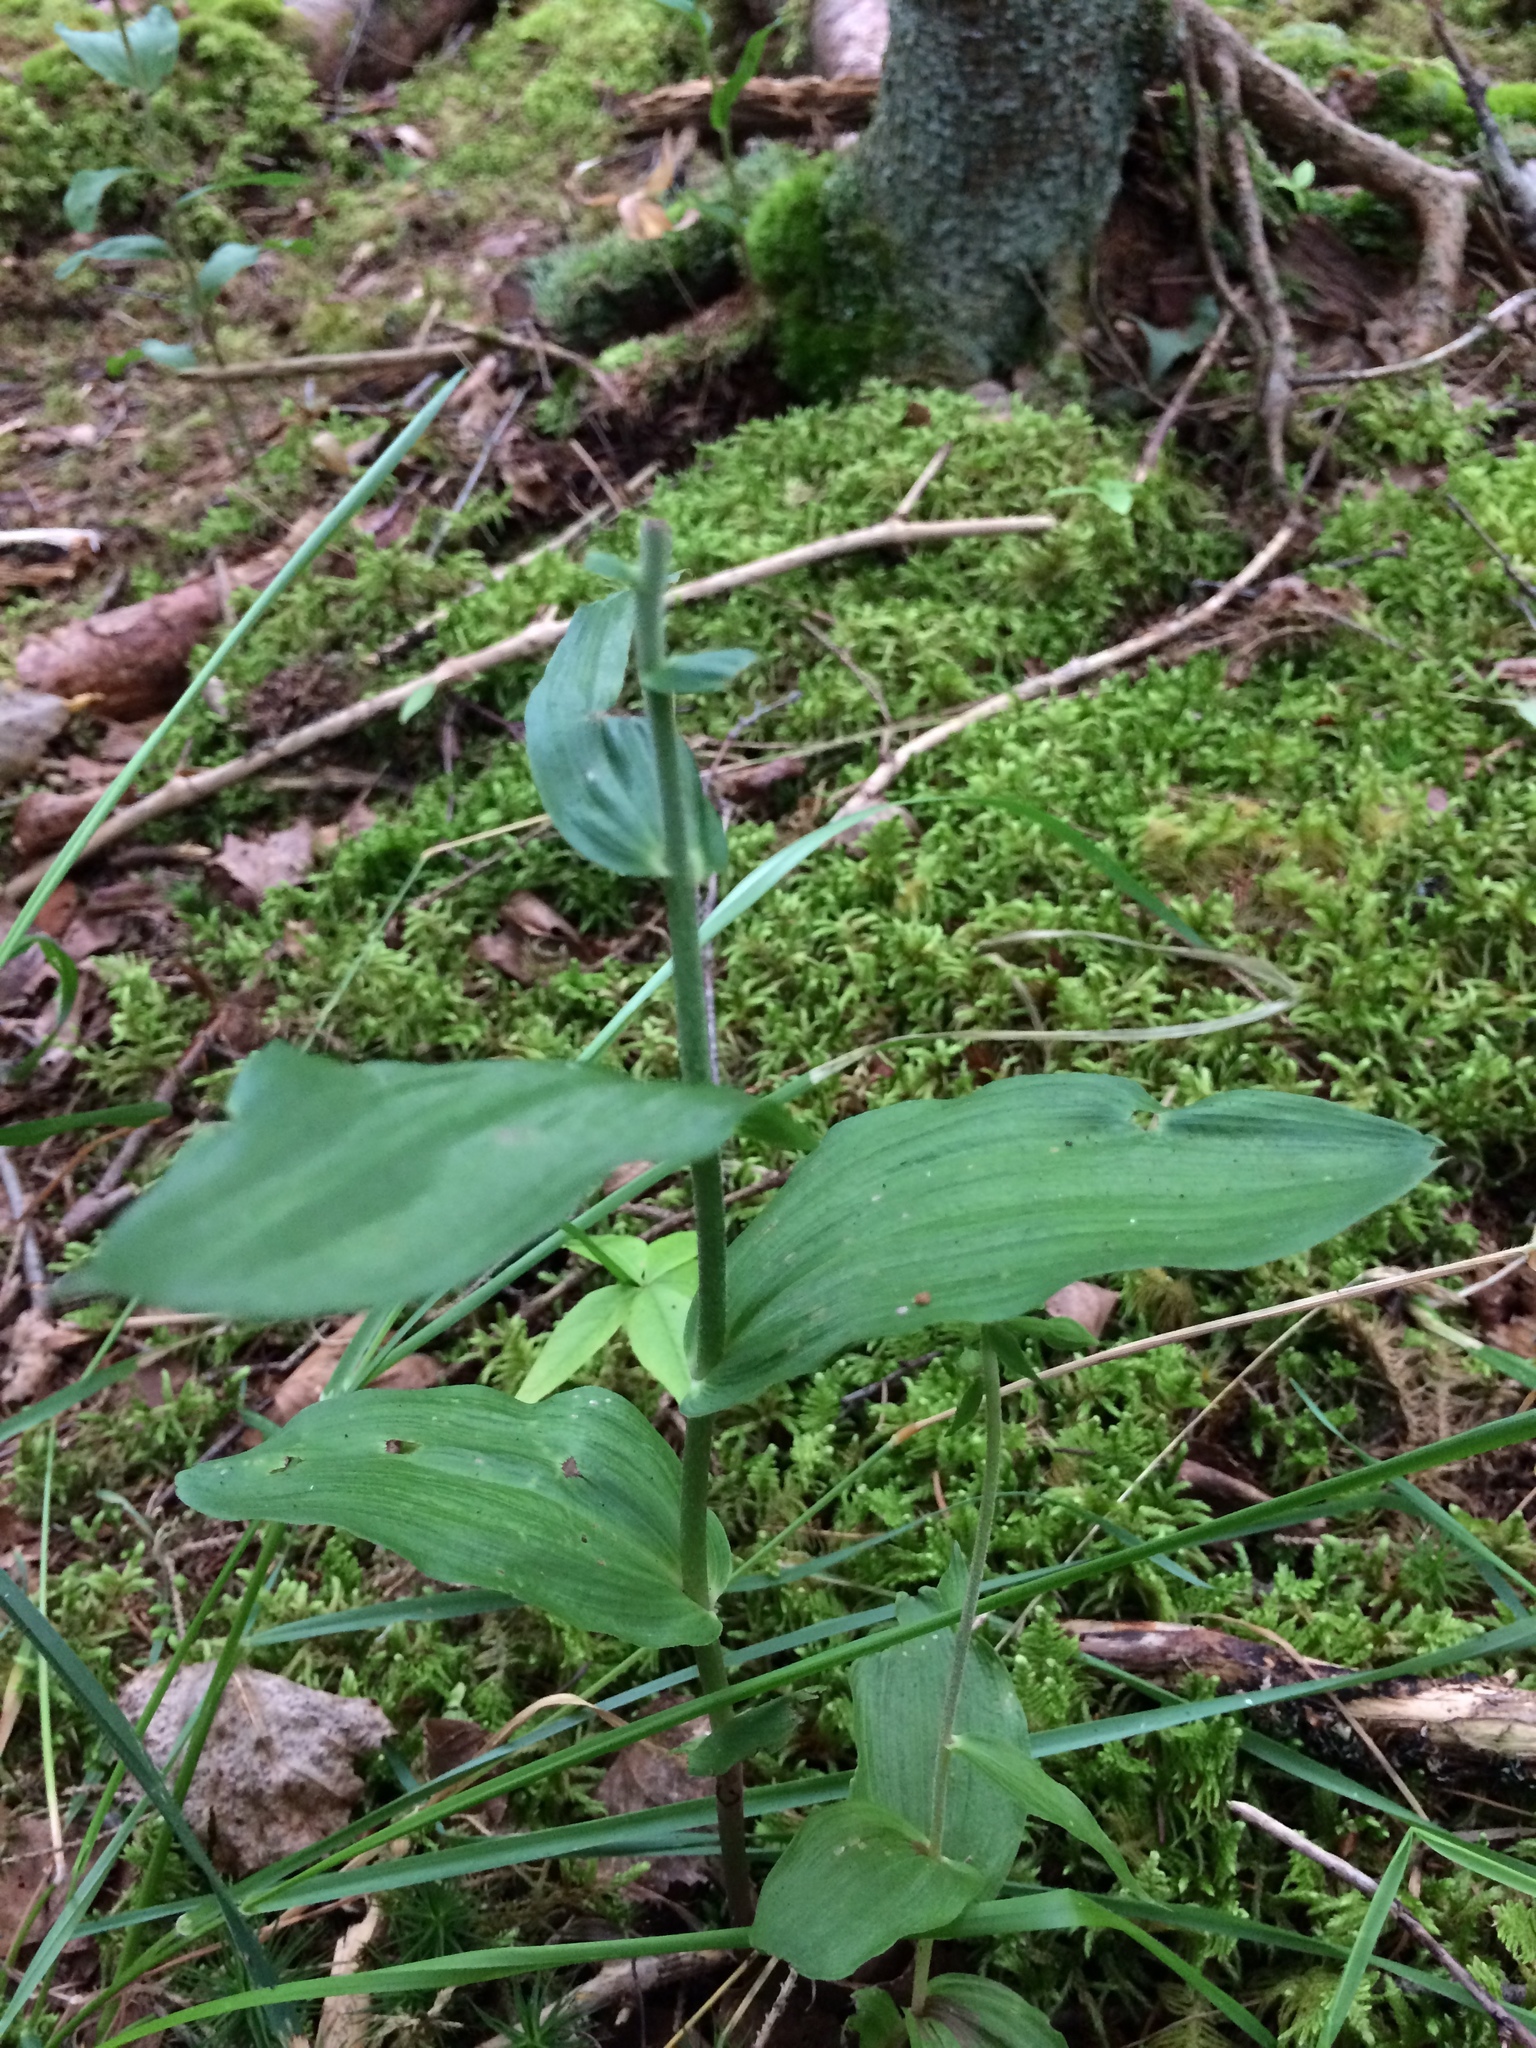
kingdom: Plantae
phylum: Tracheophyta
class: Liliopsida
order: Asparagales
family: Orchidaceae
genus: Epipactis
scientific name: Epipactis helleborine
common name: Broad-leaved helleborine
